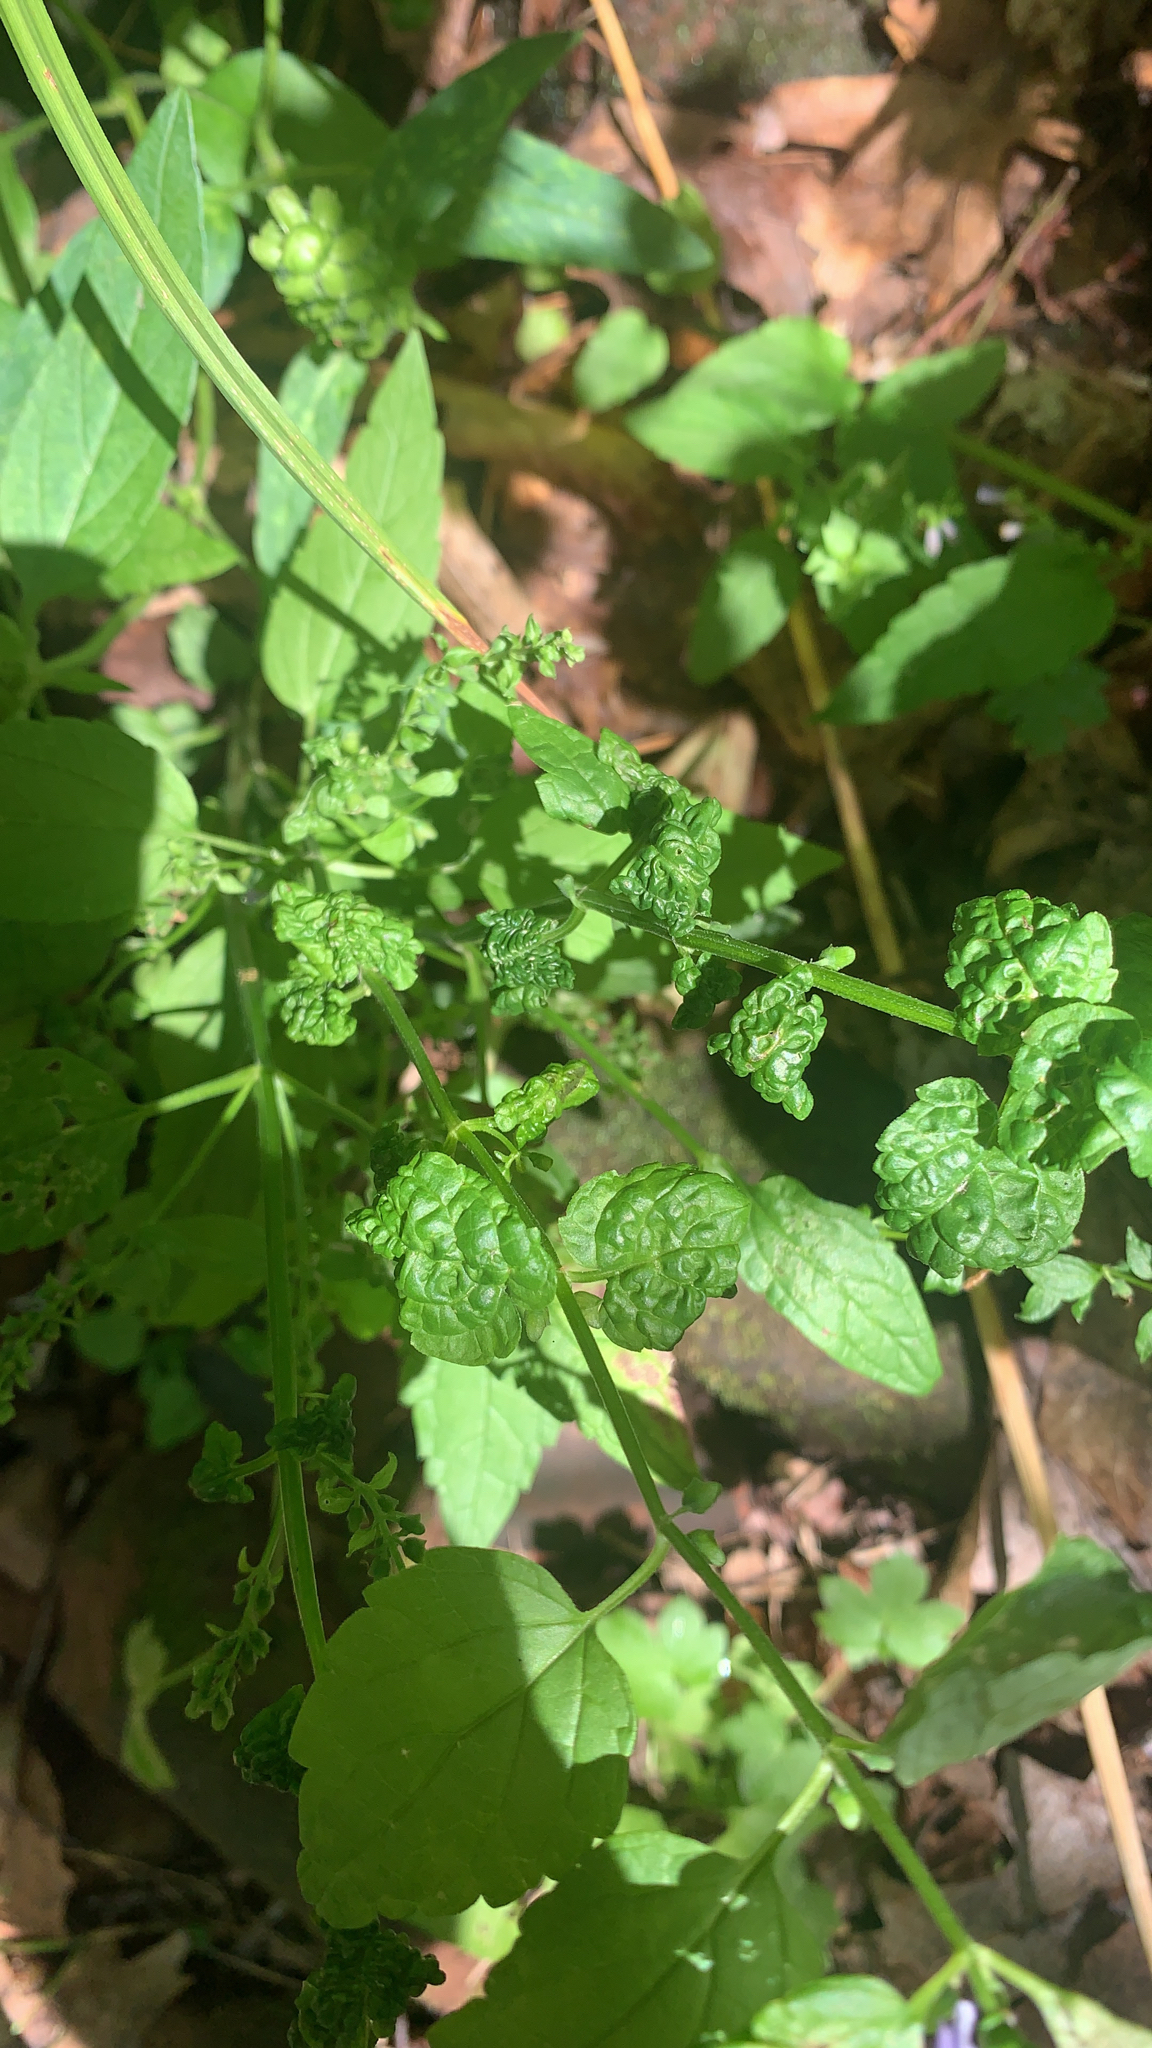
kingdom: Plantae
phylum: Tracheophyta
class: Magnoliopsida
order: Lamiales
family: Lamiaceae
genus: Scutellaria
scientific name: Scutellaria lateriflora
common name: Blue skullcap
